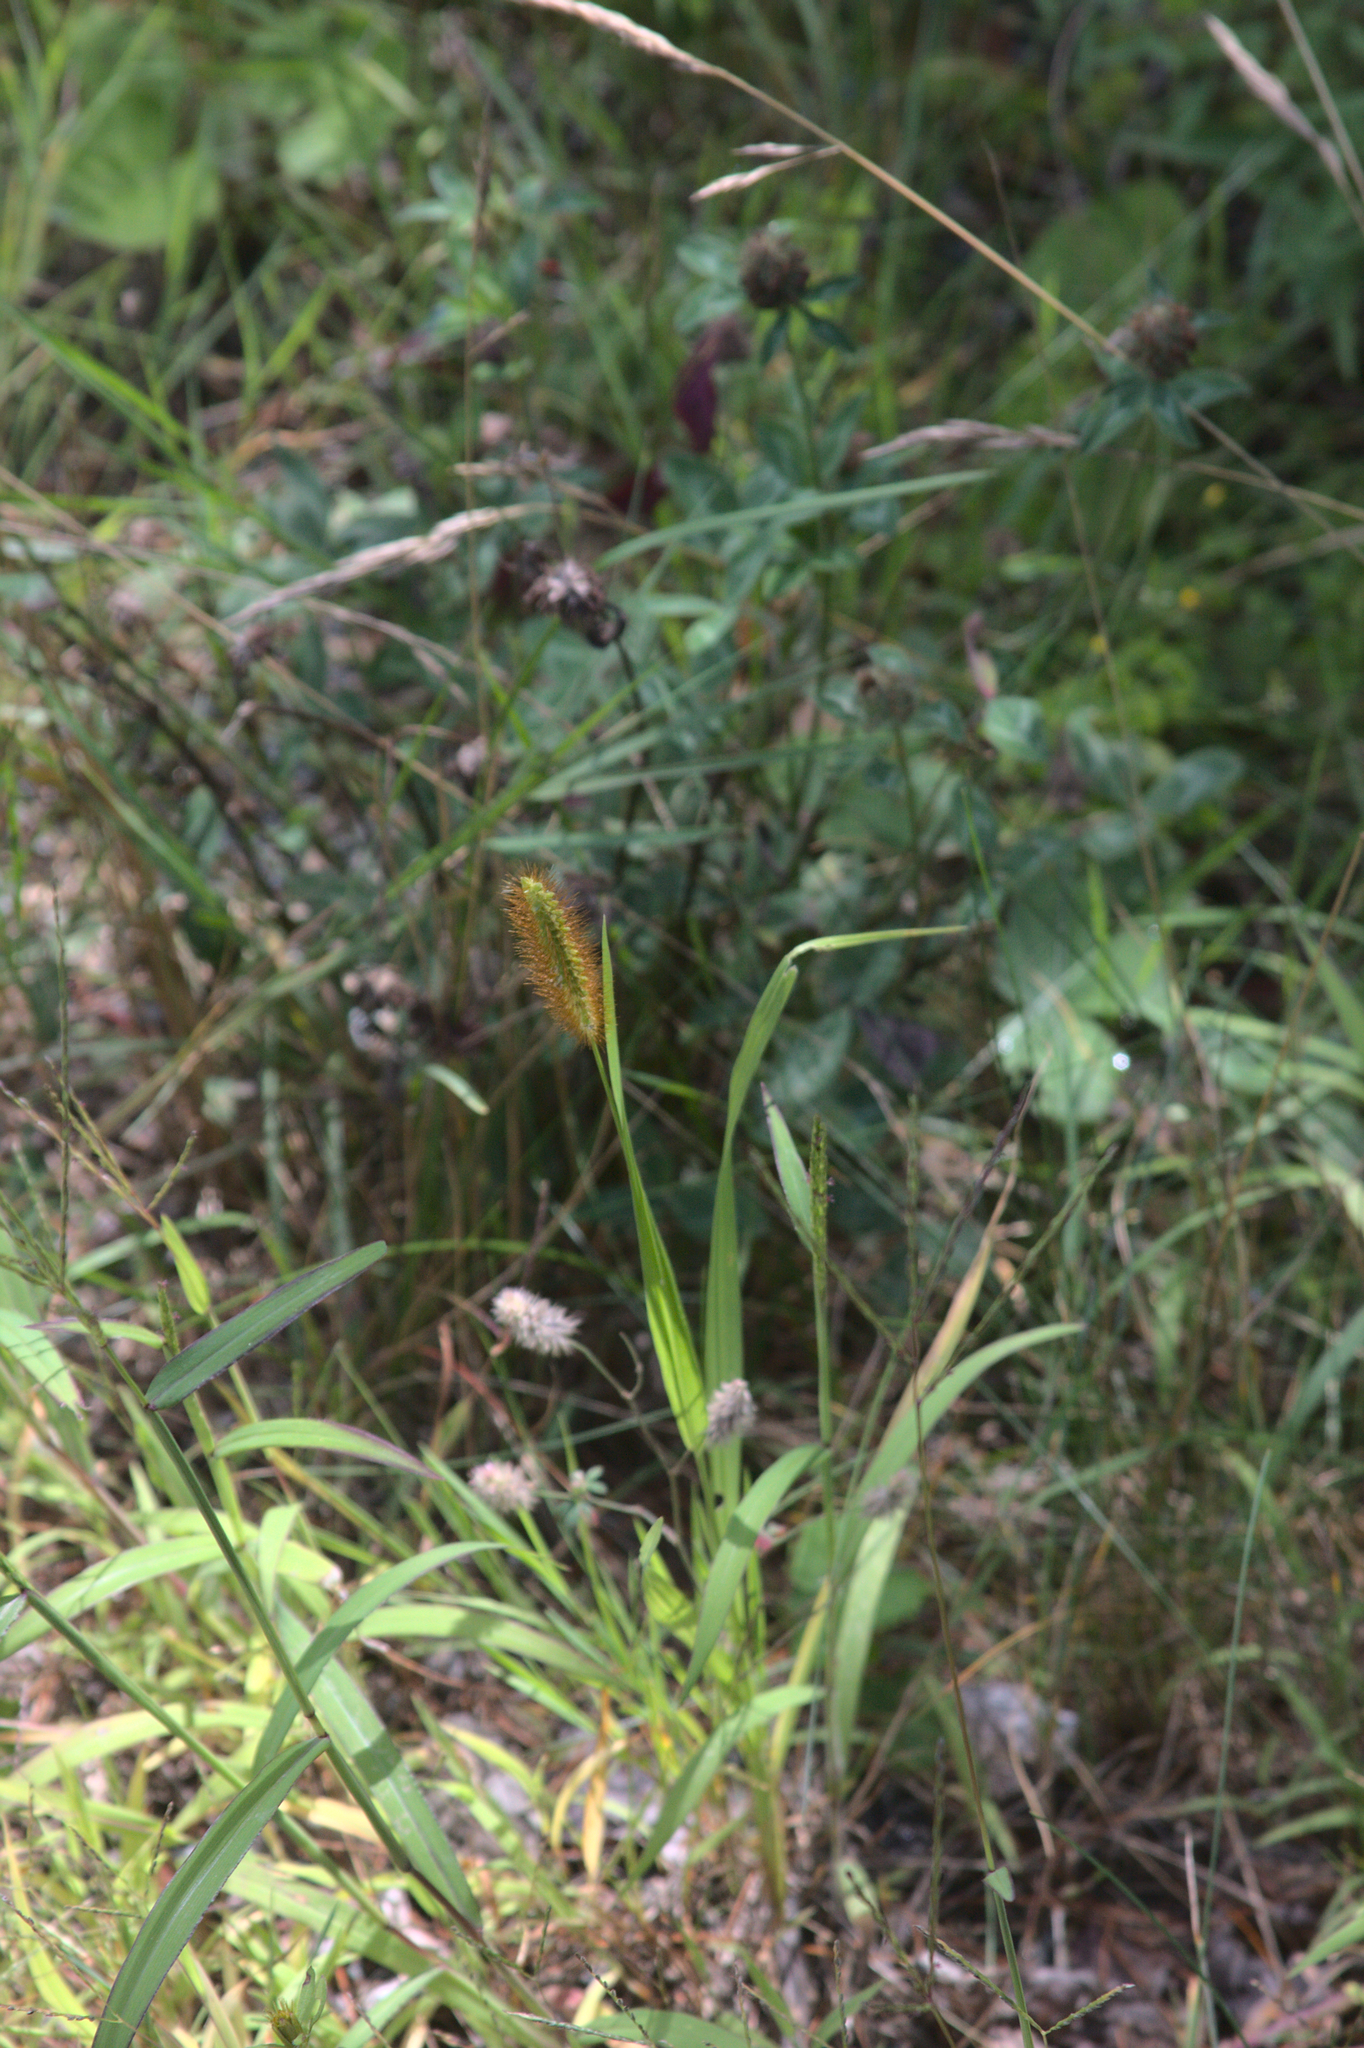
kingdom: Plantae
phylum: Tracheophyta
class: Liliopsida
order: Poales
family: Poaceae
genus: Setaria
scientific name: Setaria pumila
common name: Yellow bristle-grass
